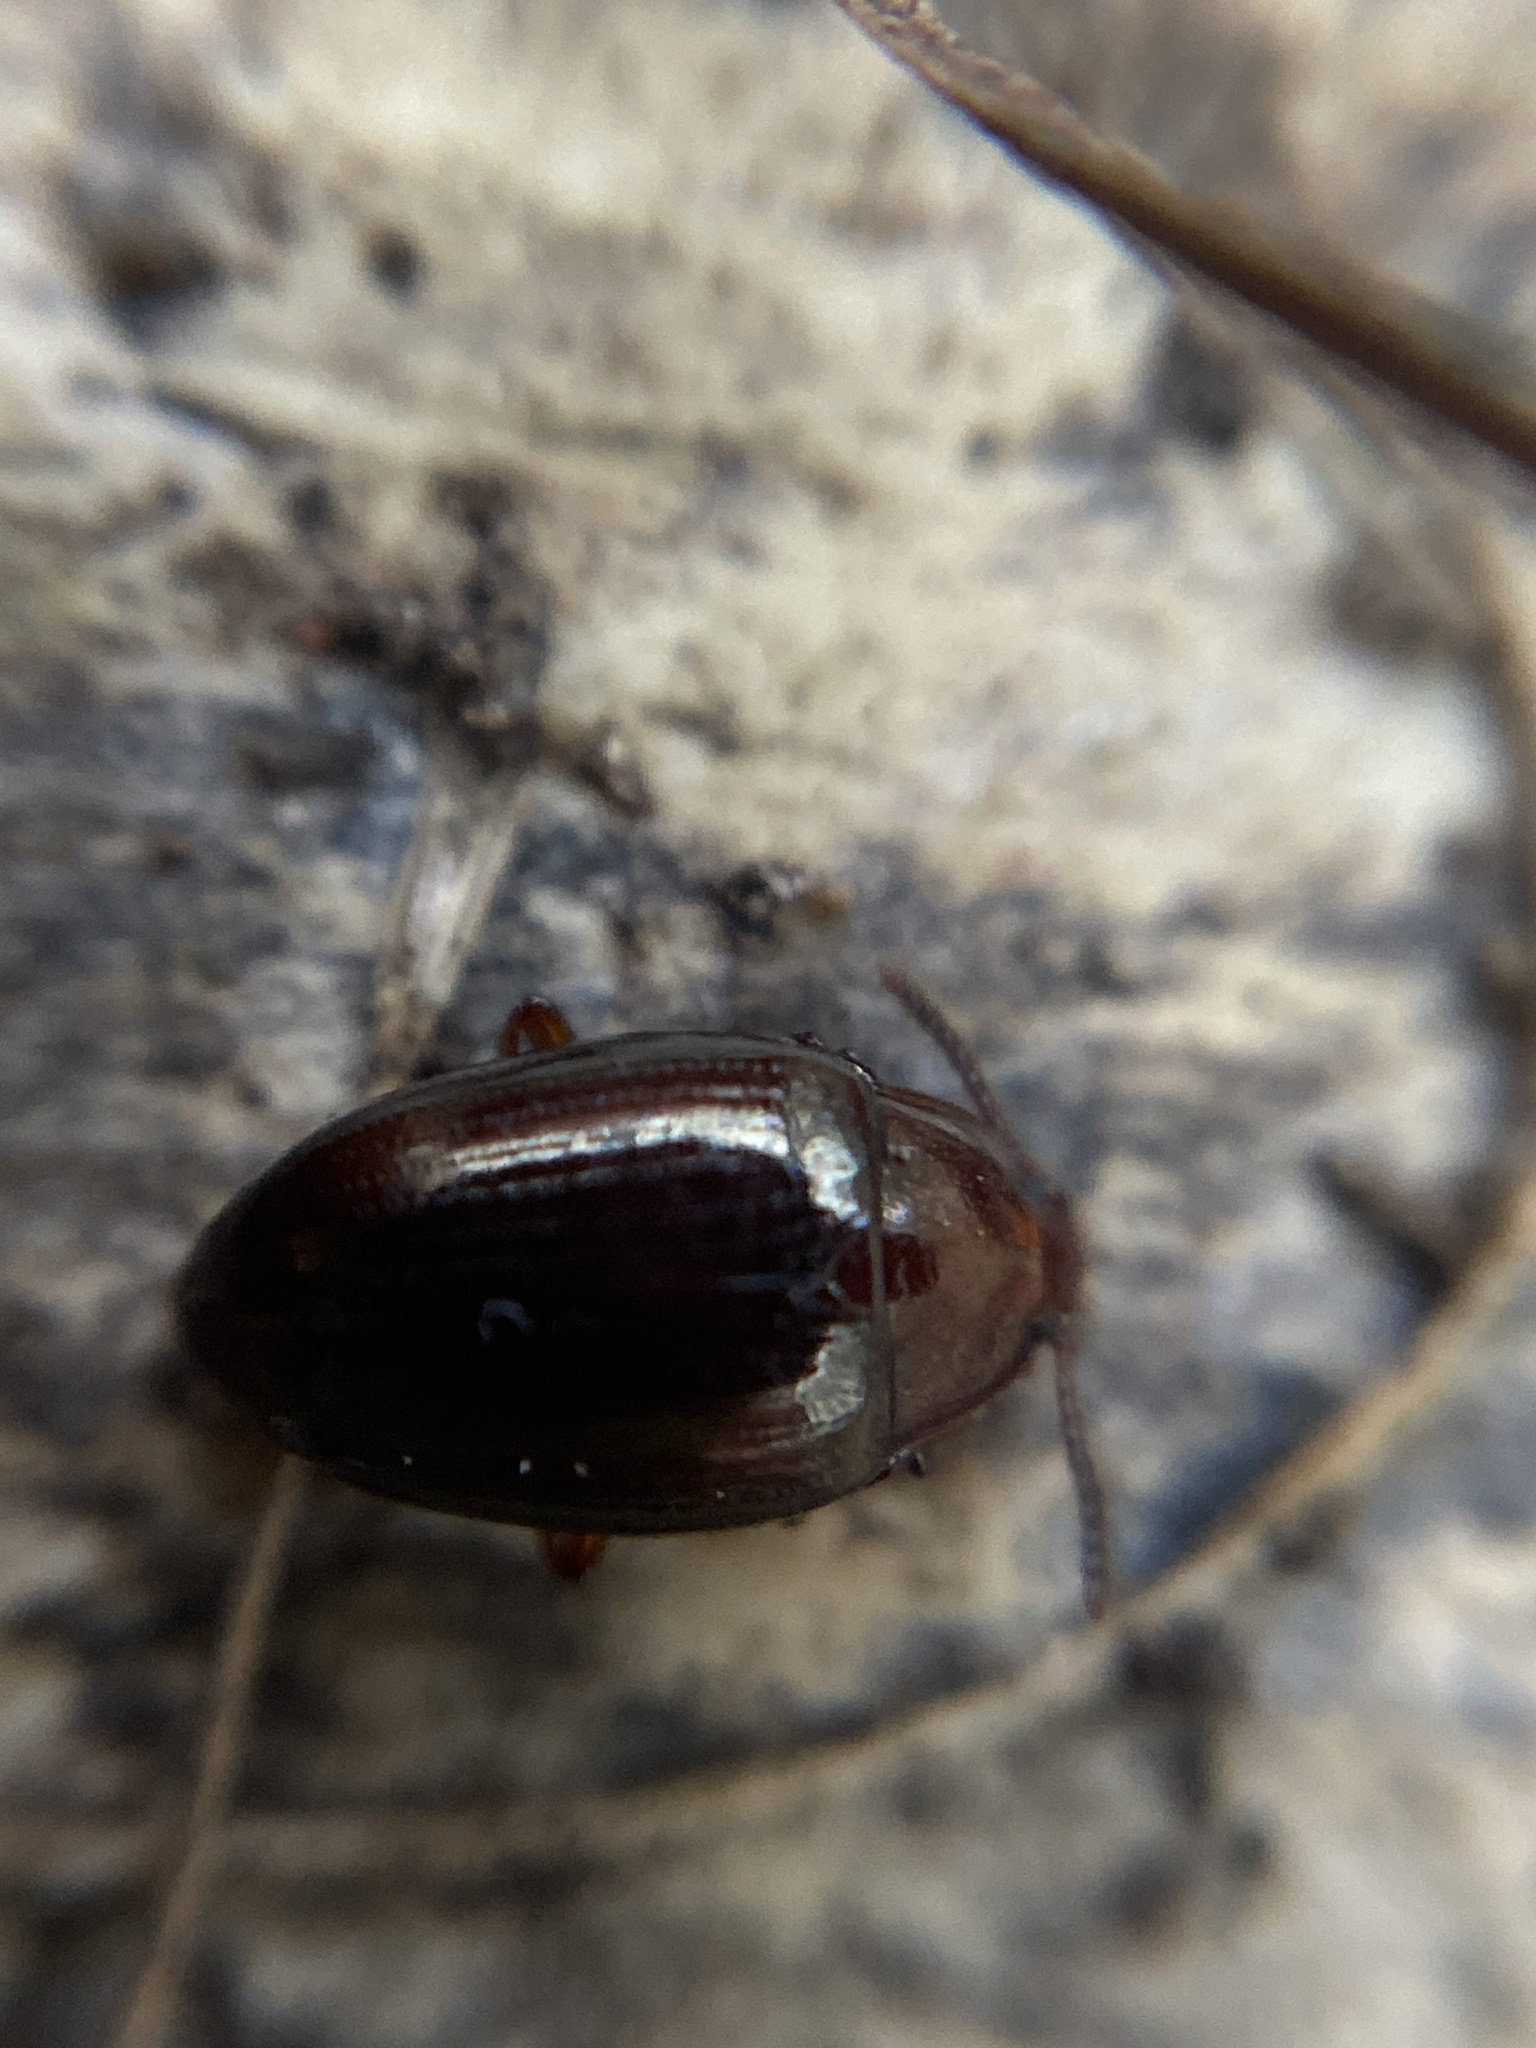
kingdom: Animalia
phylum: Arthropoda
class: Insecta
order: Coleoptera
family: Tenebrionidae
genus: Blapstinus
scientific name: Blapstinus metallicus
